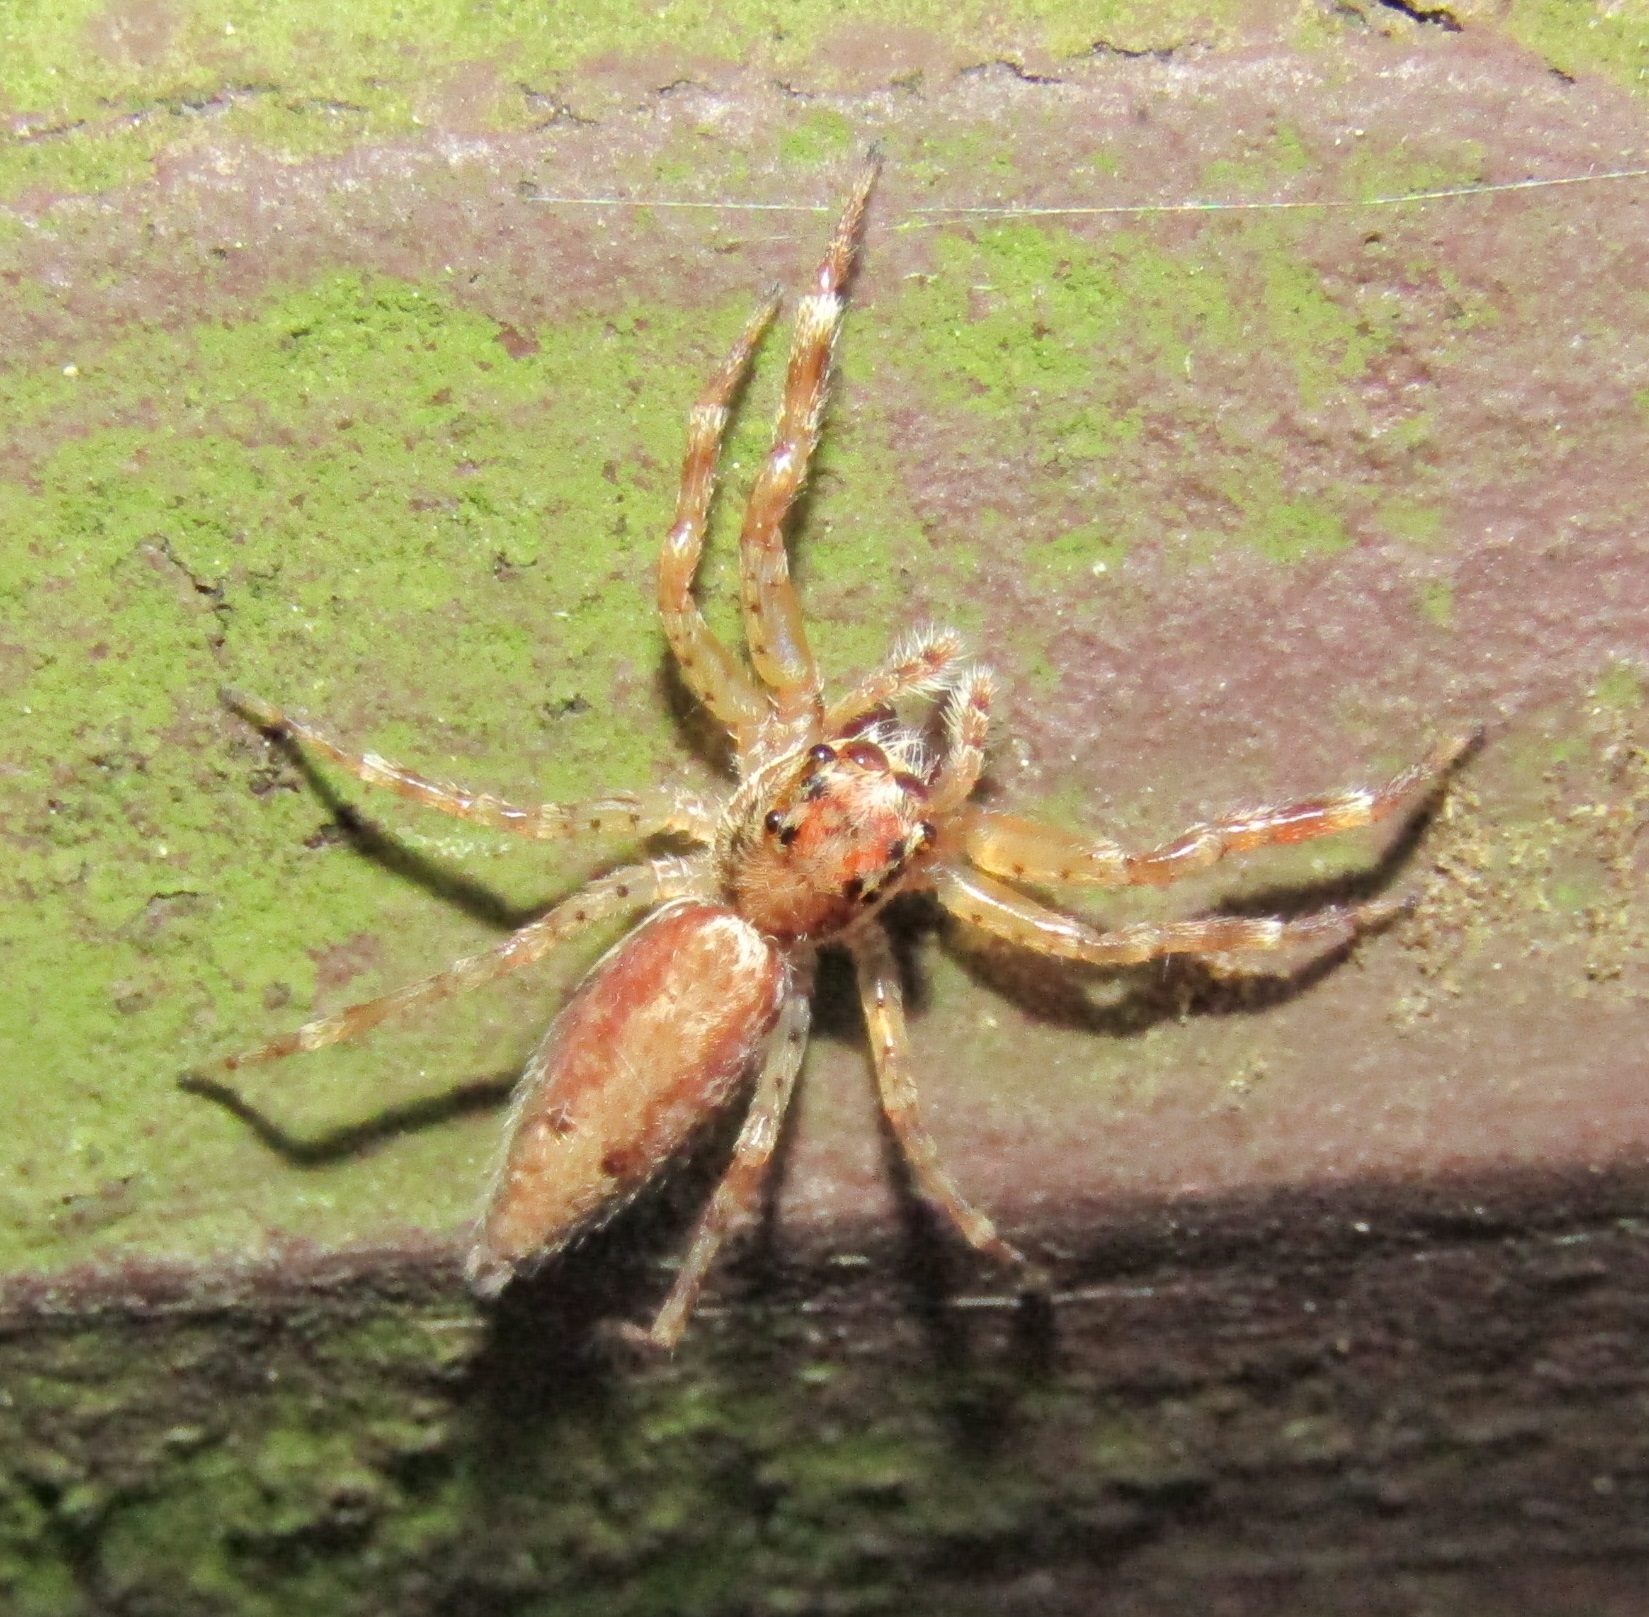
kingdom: Animalia
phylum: Arthropoda
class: Arachnida
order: Araneae
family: Salticidae
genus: Helpis
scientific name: Helpis minitabunda
